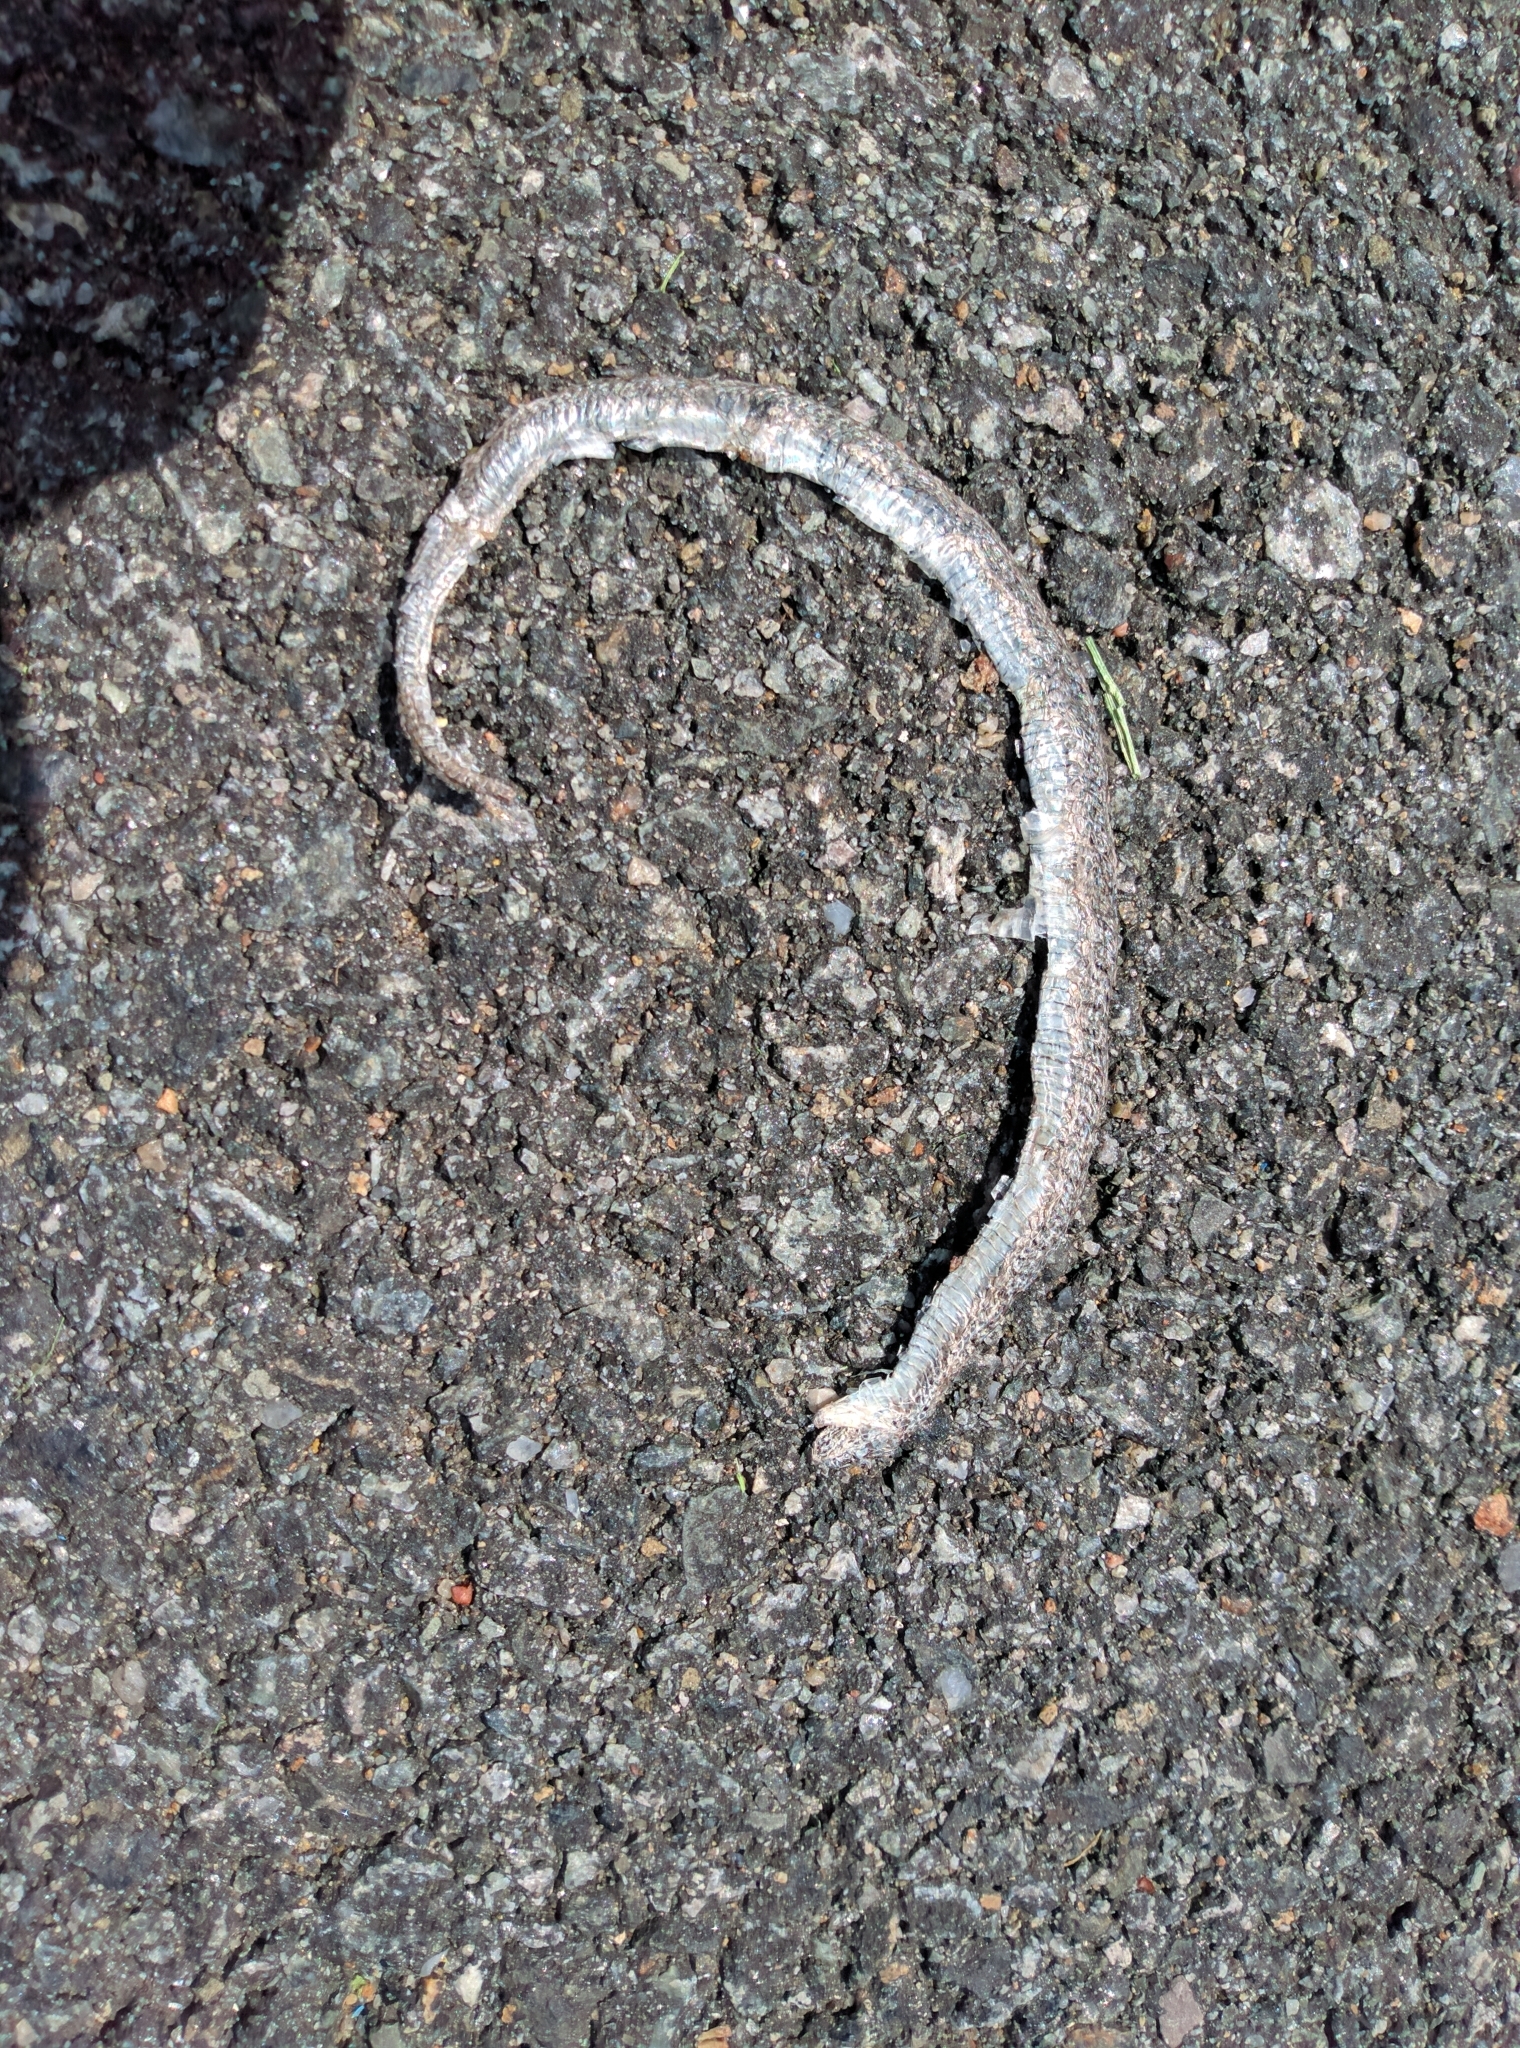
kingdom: Animalia
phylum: Chordata
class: Squamata
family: Colubridae
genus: Thamnophis
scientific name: Thamnophis sirtalis
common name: Common garter snake
